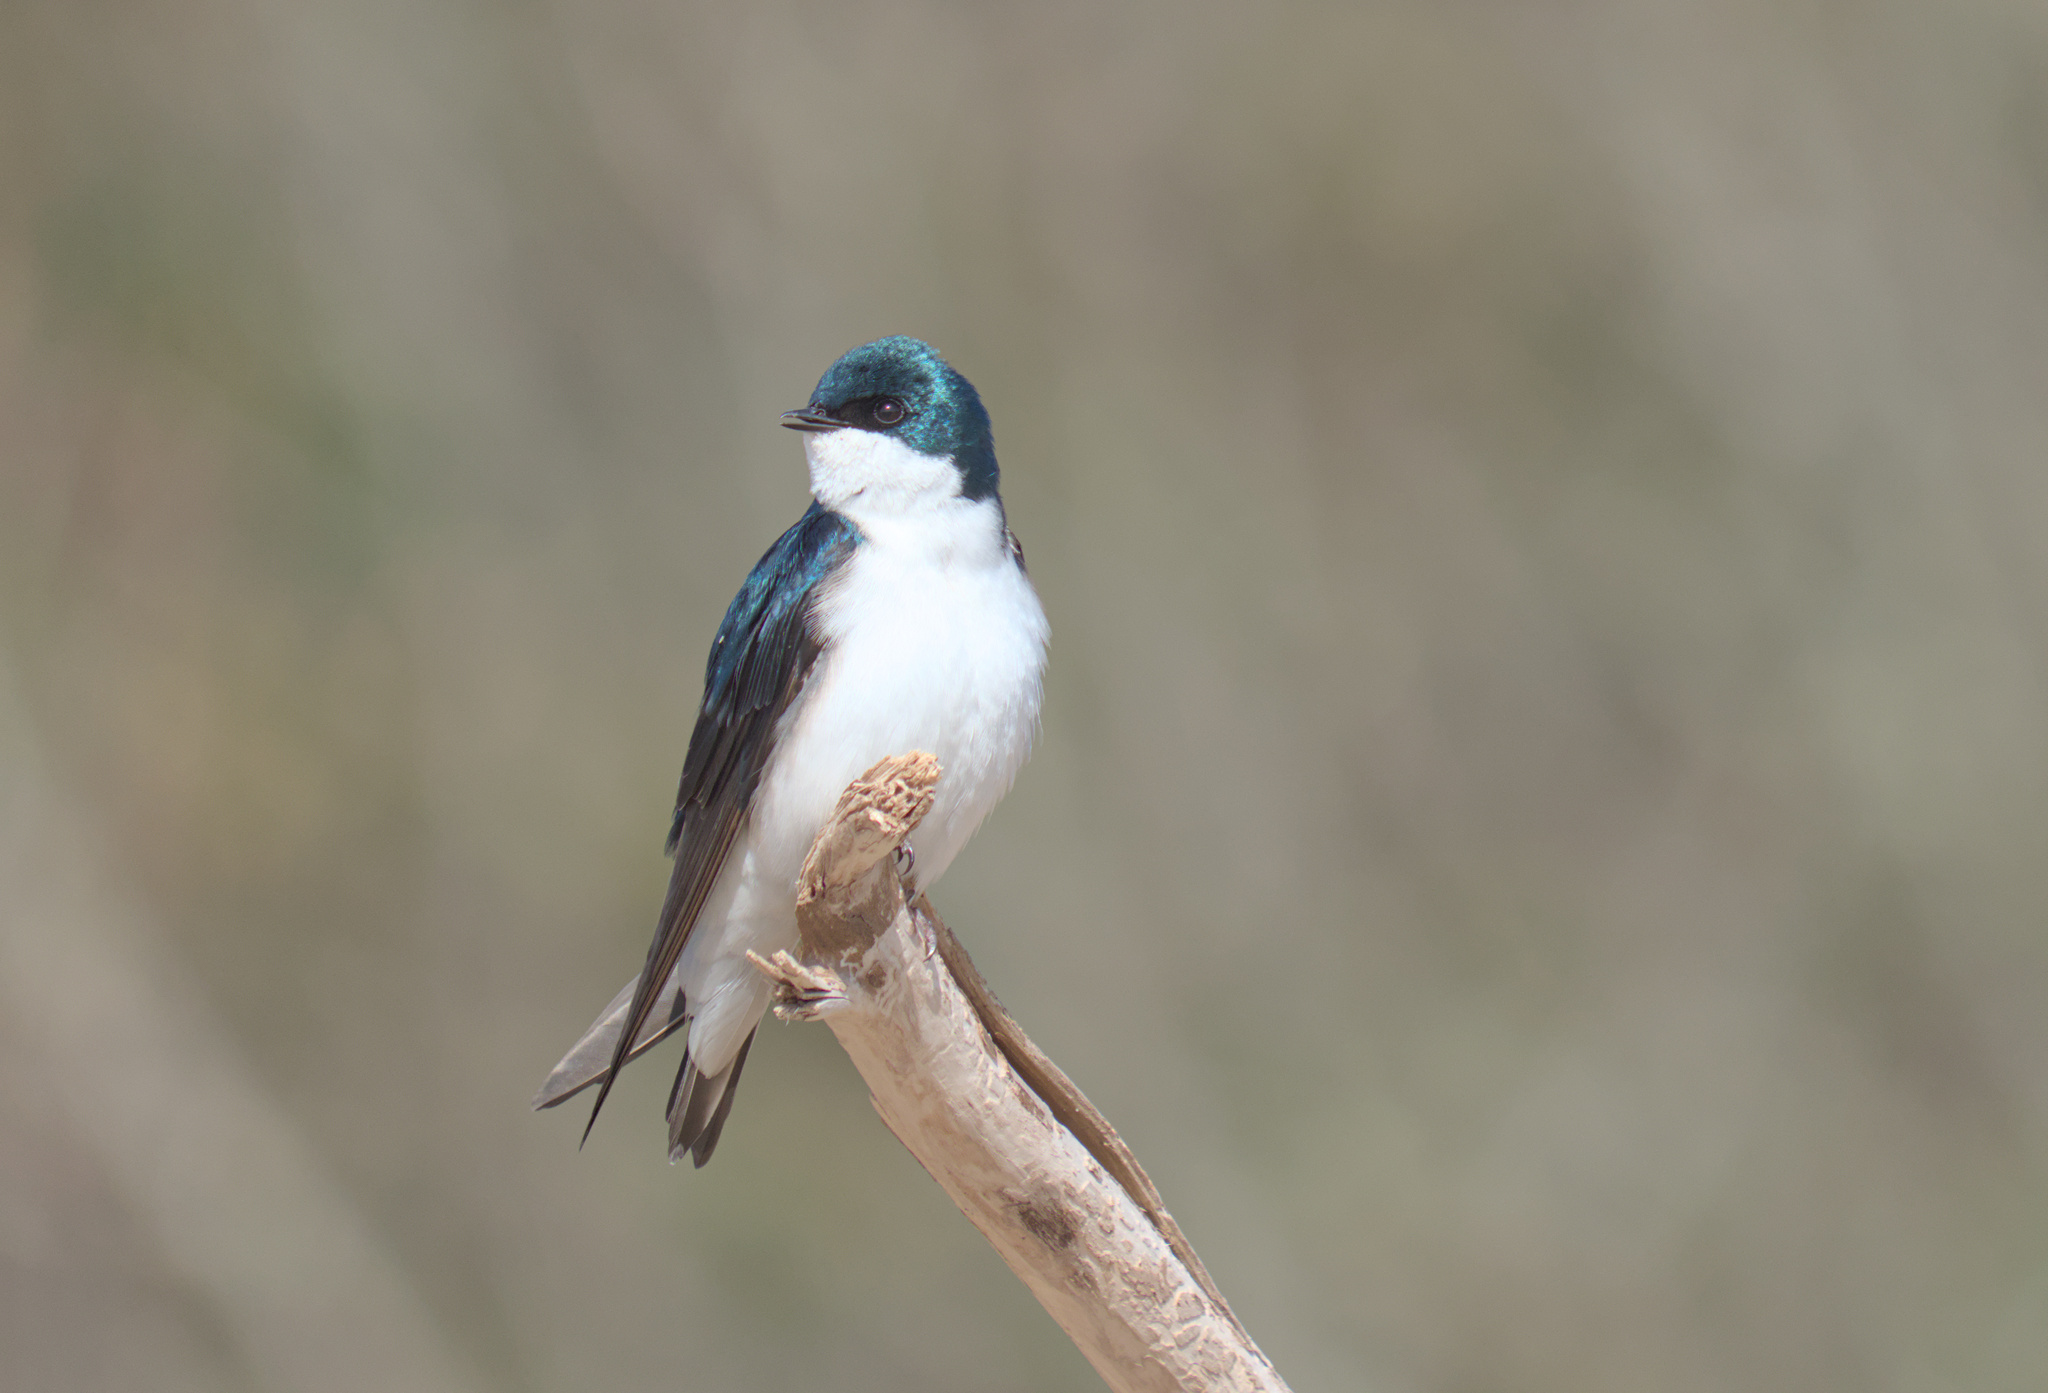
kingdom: Animalia
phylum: Chordata
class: Aves
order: Passeriformes
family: Hirundinidae
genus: Tachycineta
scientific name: Tachycineta bicolor
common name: Tree swallow
